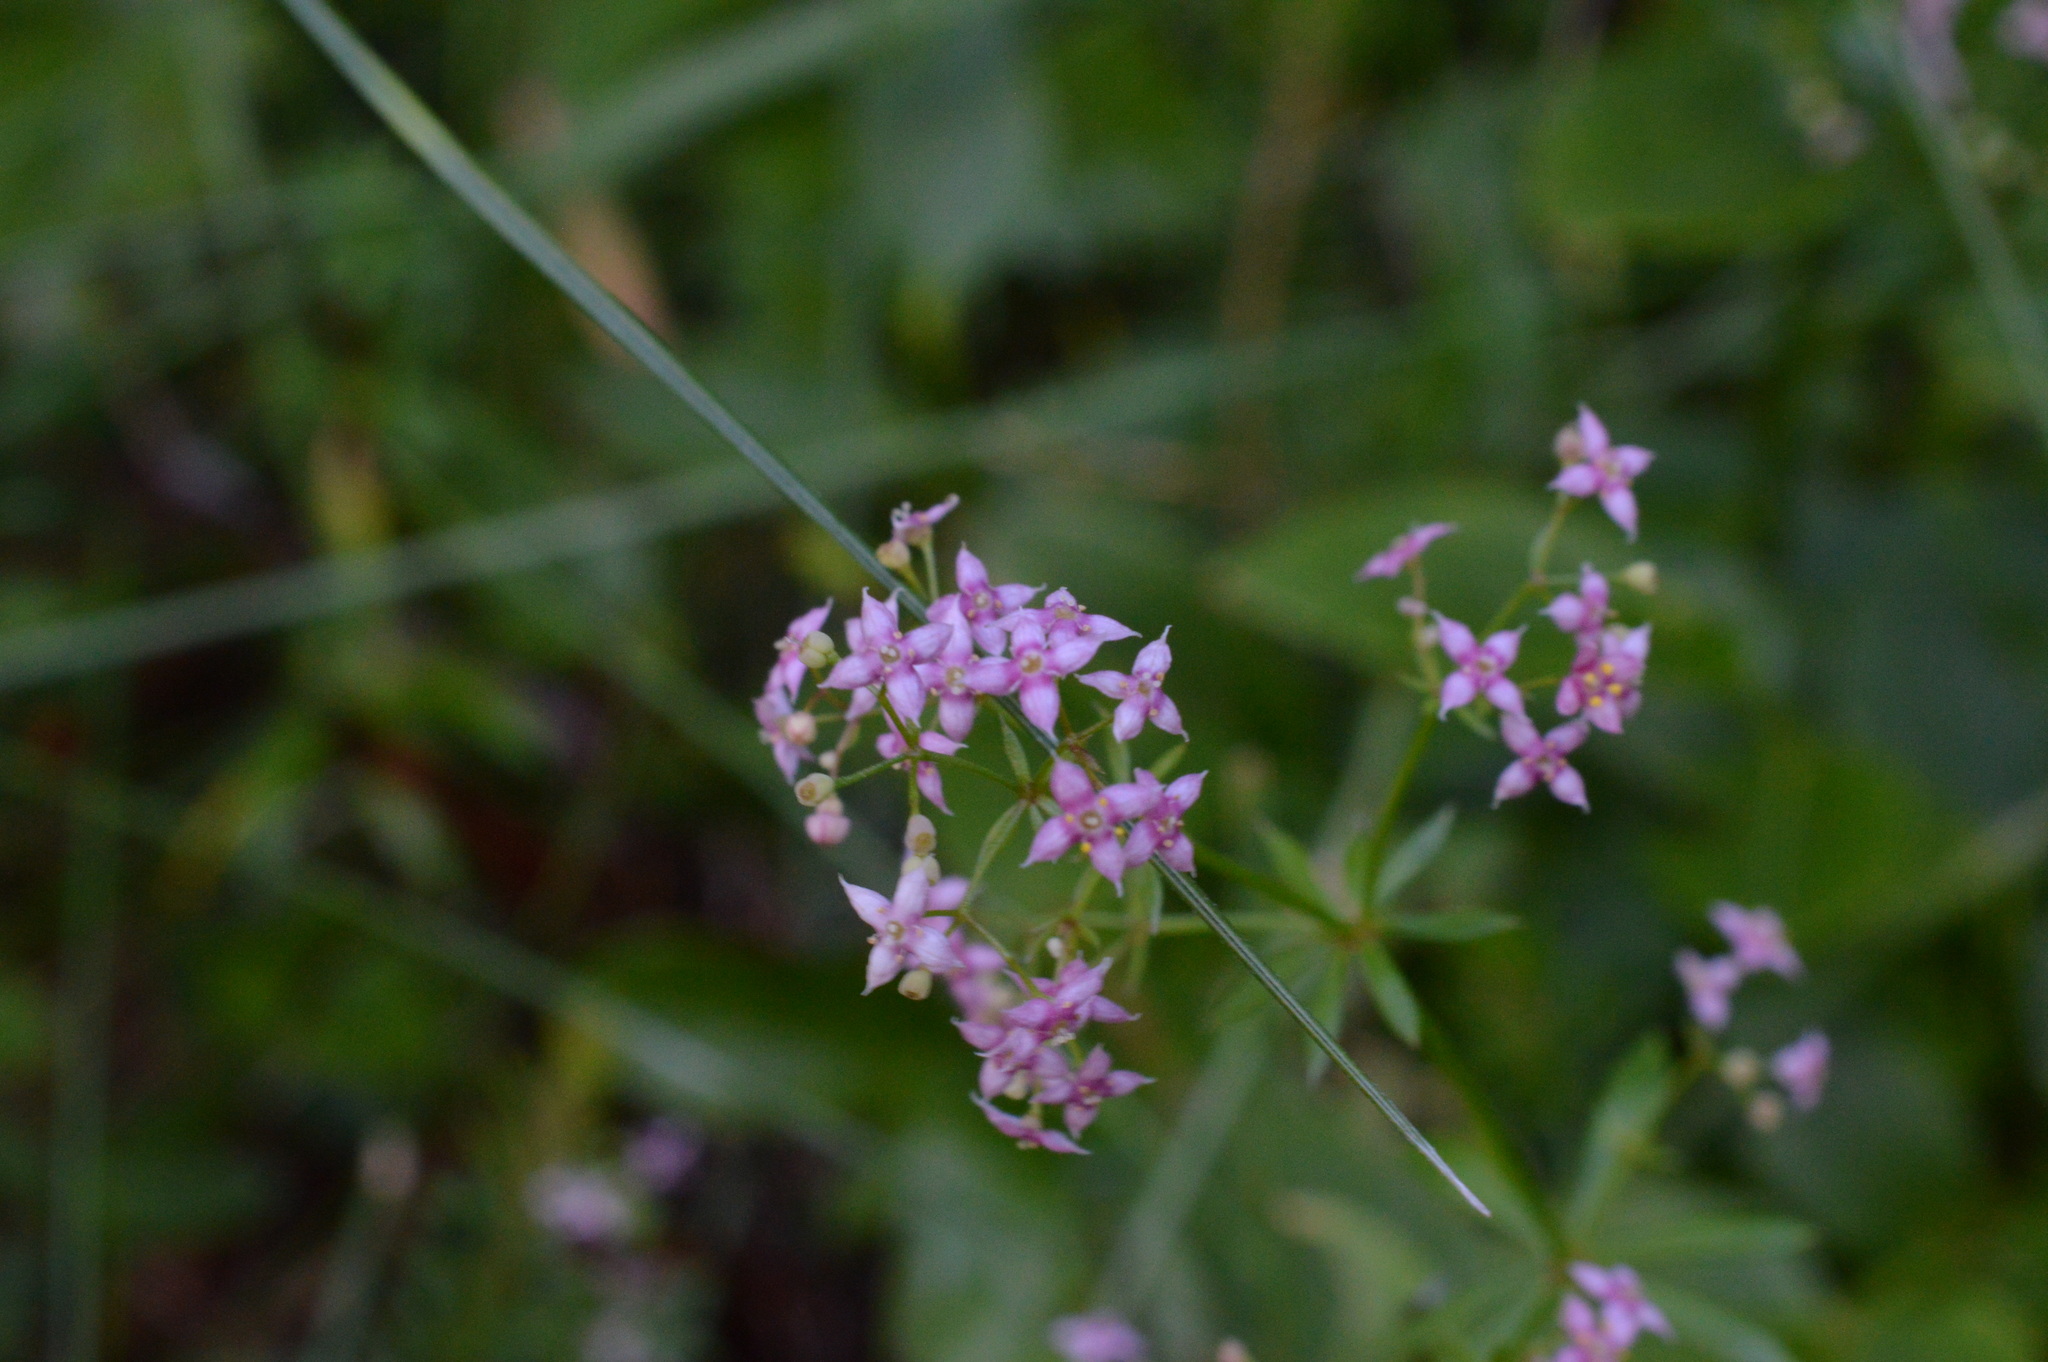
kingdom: Plantae
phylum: Tracheophyta
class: Magnoliopsida
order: Gentianales
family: Rubiaceae
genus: Galium
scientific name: Galium rubrum
